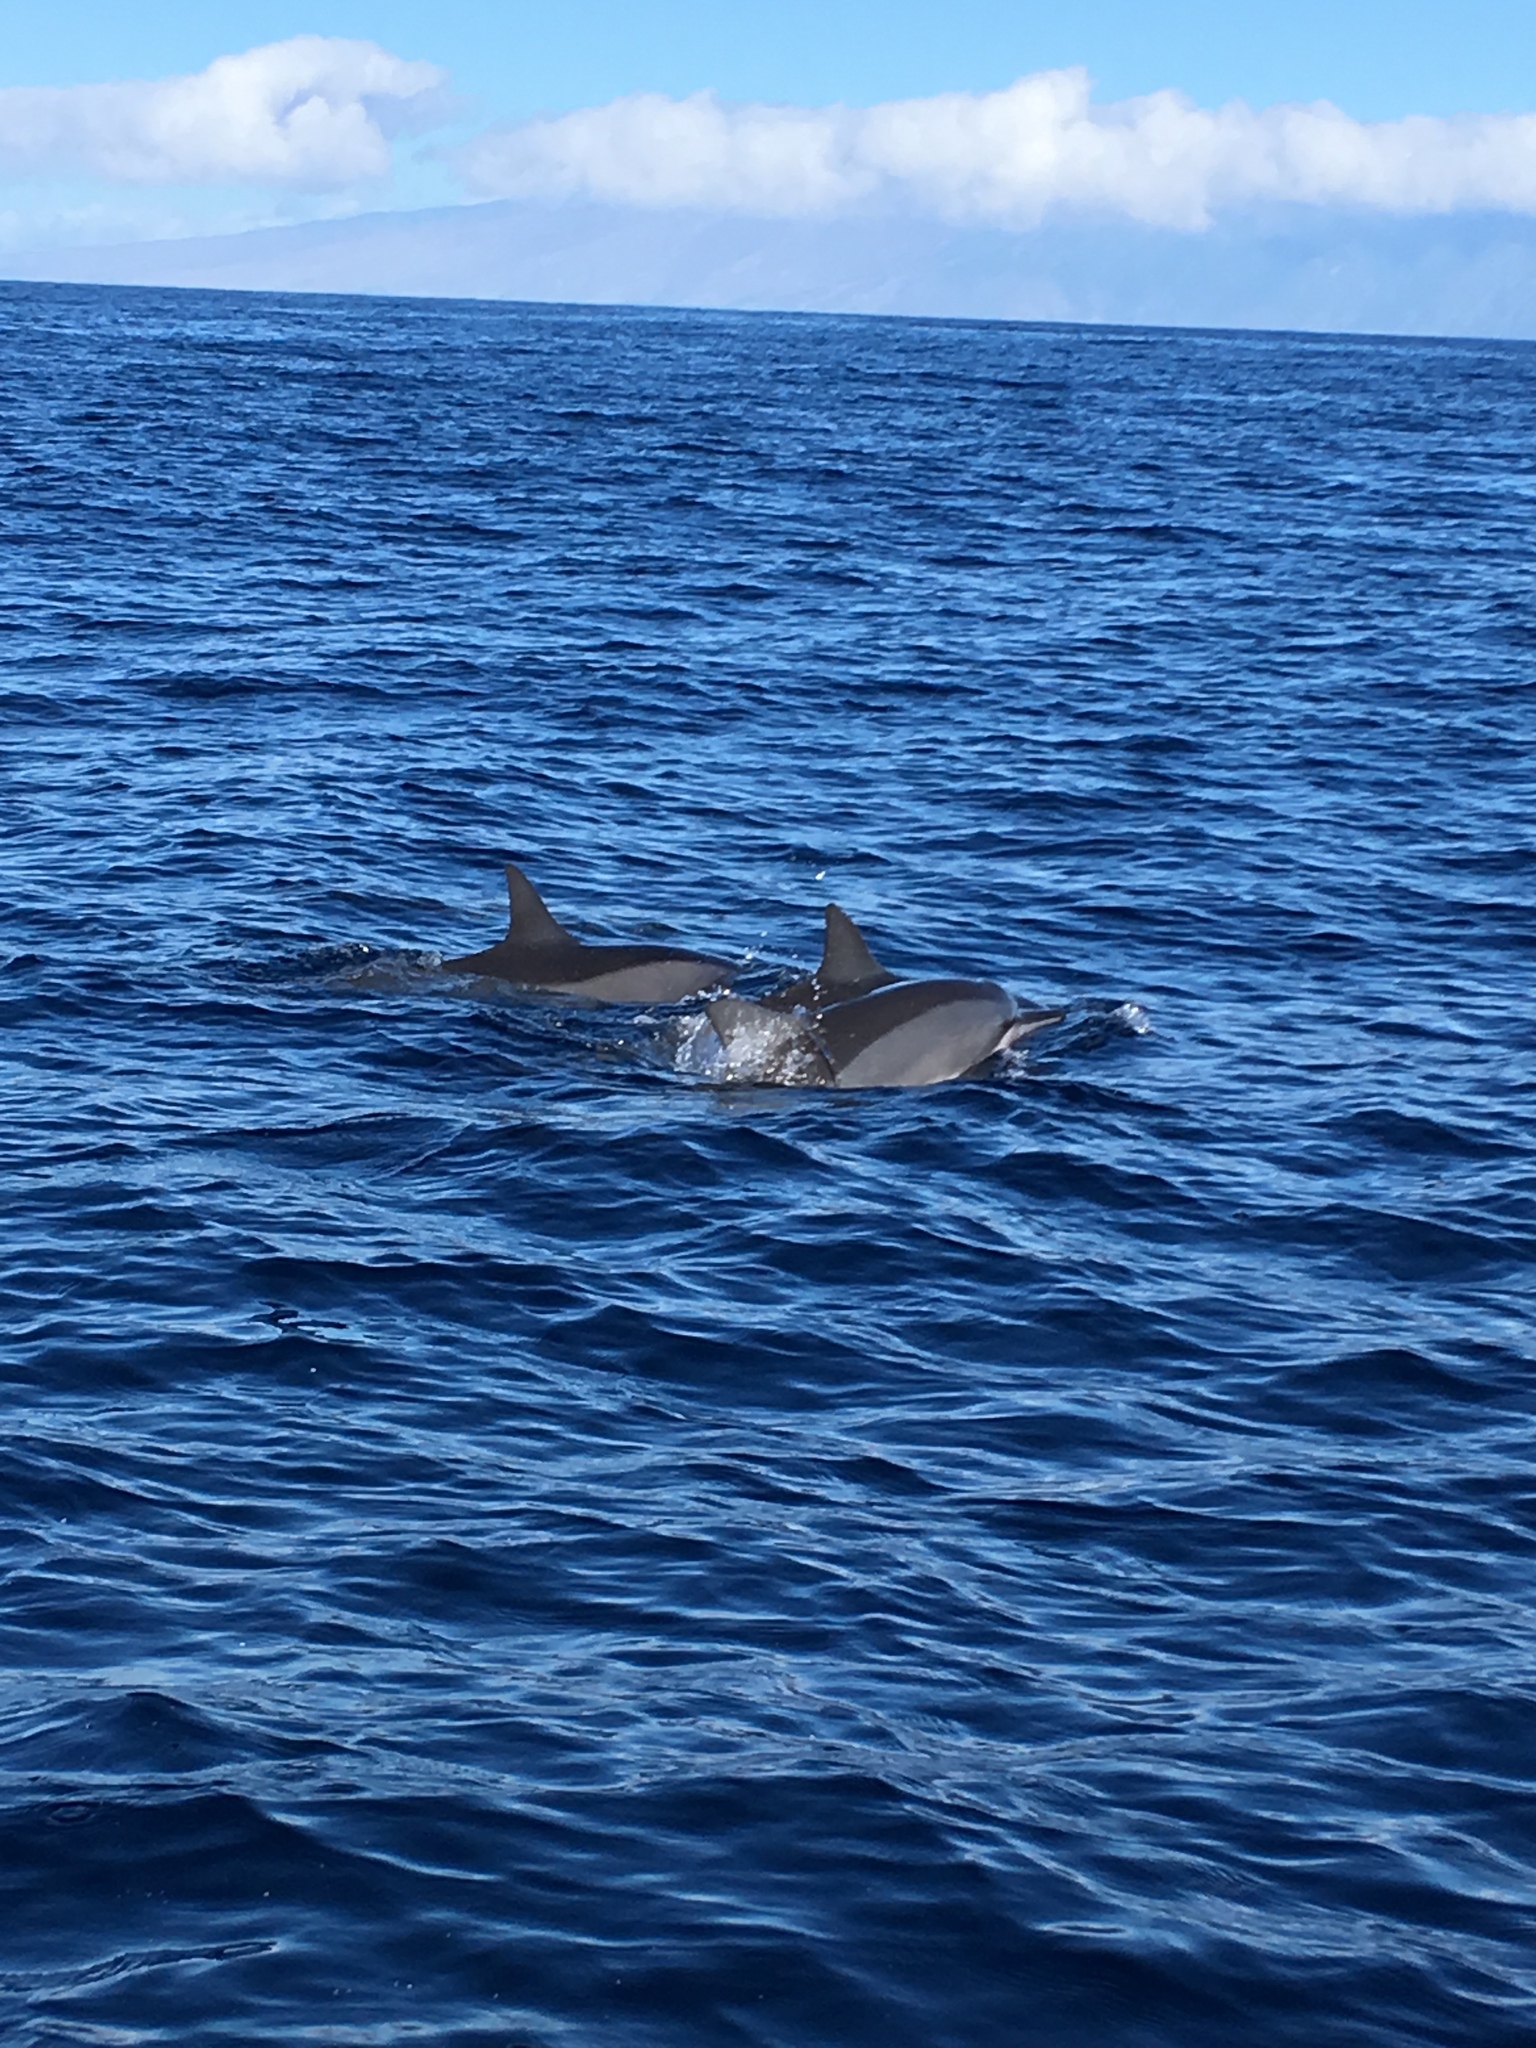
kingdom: Animalia
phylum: Chordata
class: Mammalia
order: Cetacea
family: Delphinidae
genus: Stenella
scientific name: Stenella longirostris
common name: Spinner dolphin
